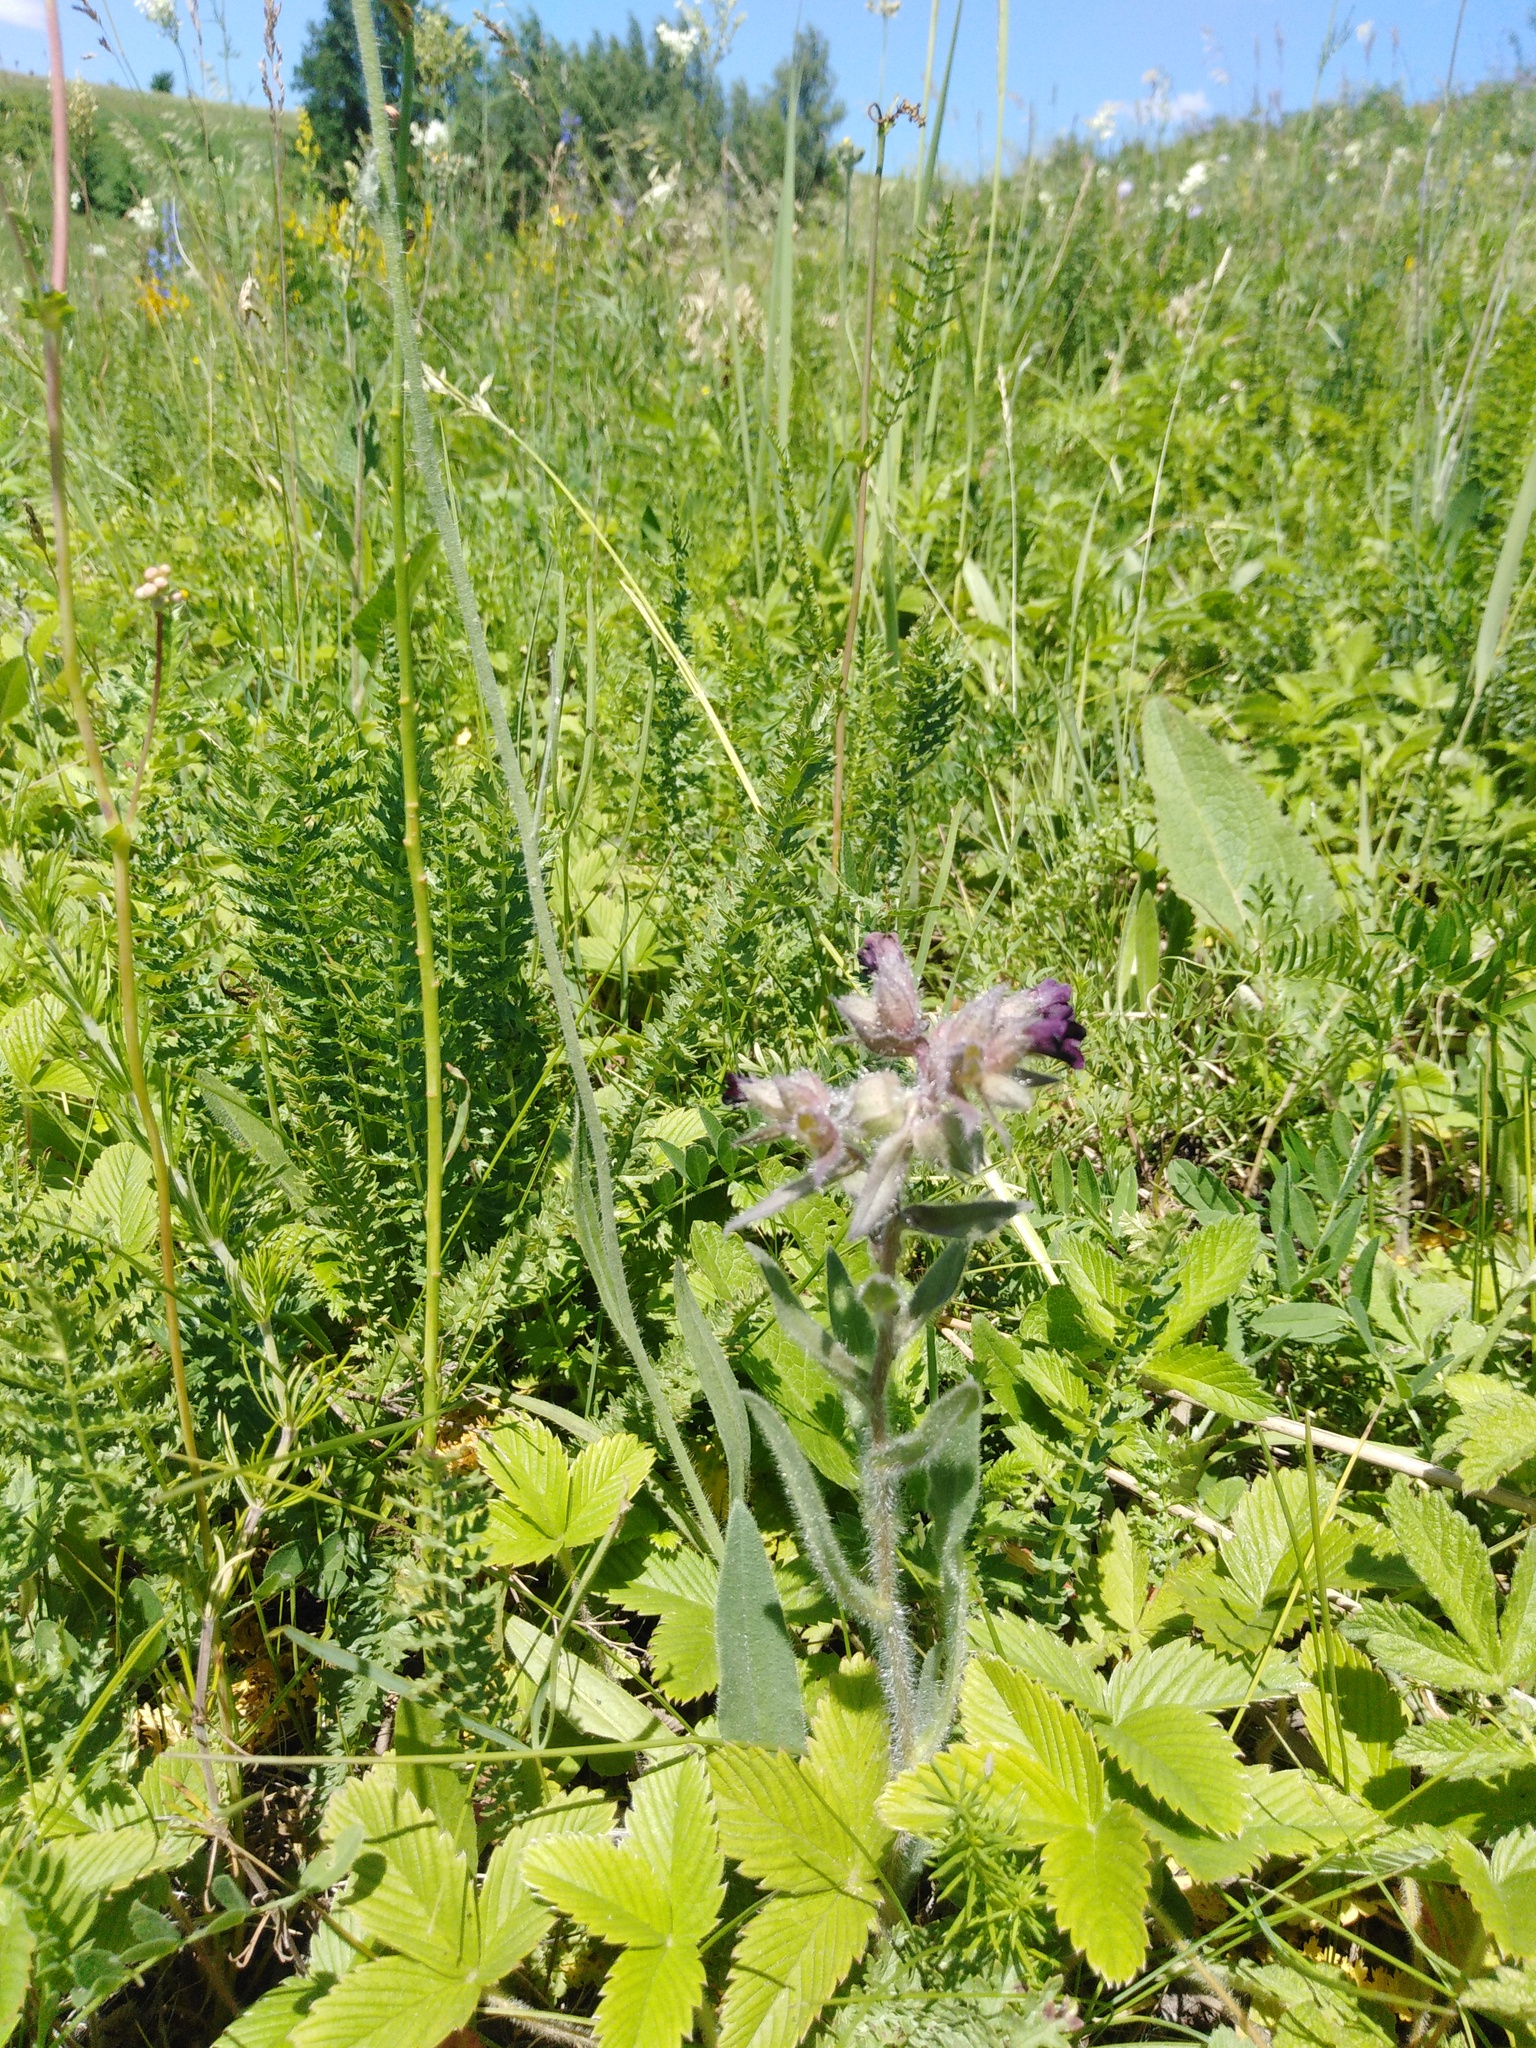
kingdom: Plantae
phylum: Tracheophyta
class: Magnoliopsida
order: Boraginales
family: Boraginaceae
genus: Nonea
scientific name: Nonea pulla
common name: Brown nonea
